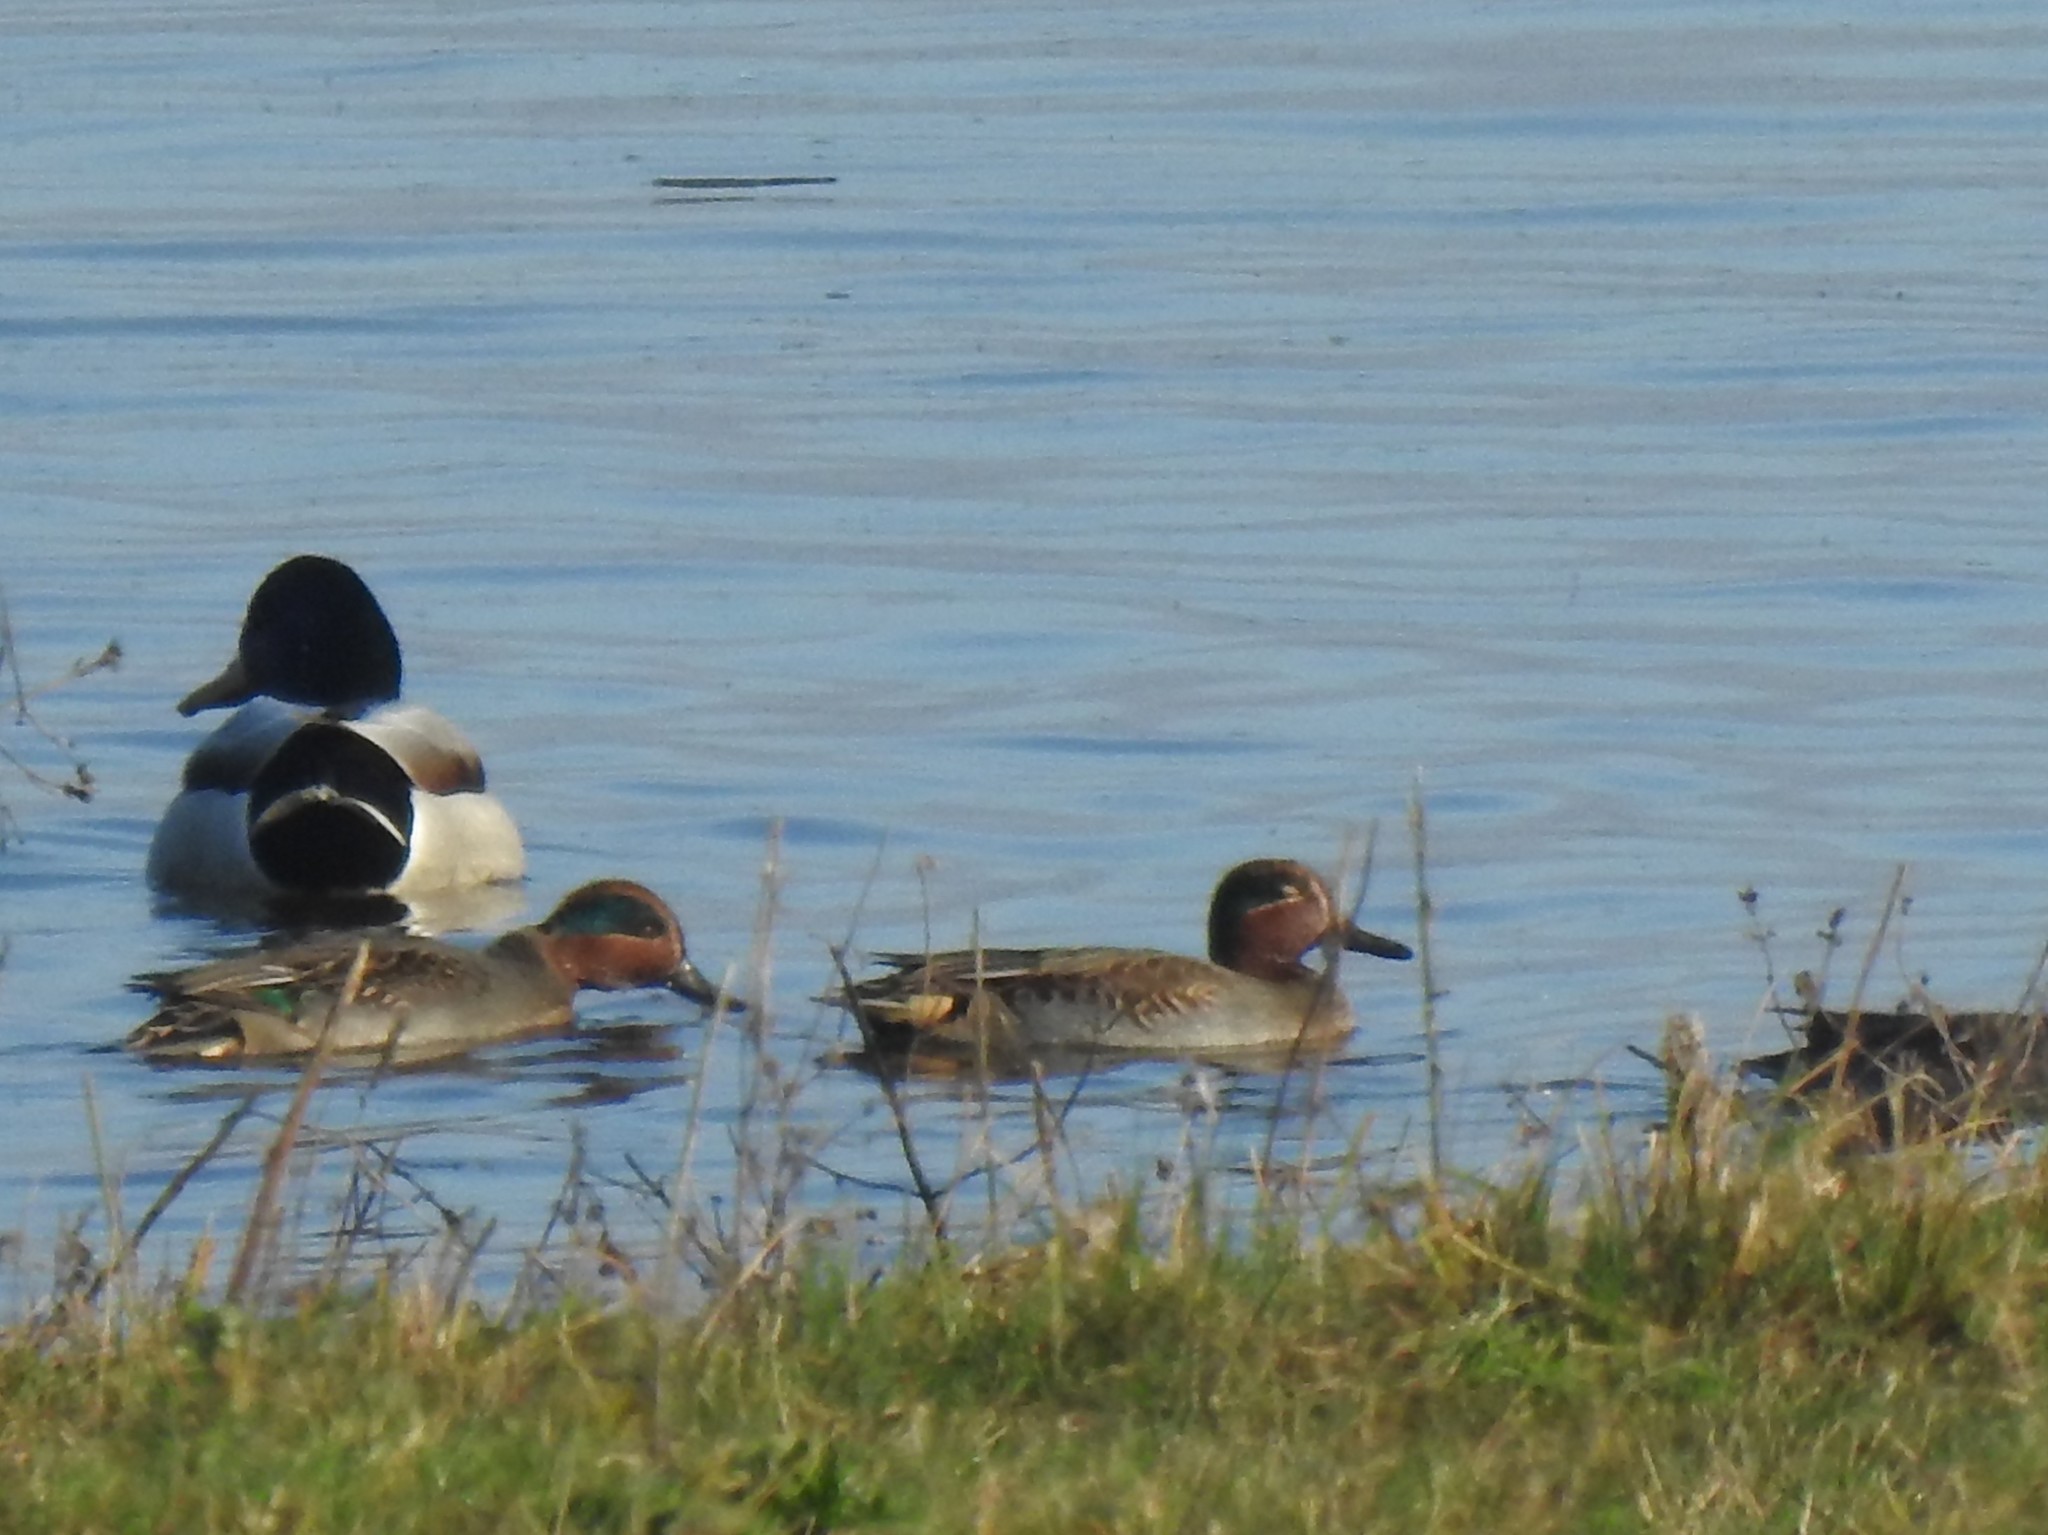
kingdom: Animalia
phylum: Chordata
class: Aves
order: Anseriformes
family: Anatidae
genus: Anas
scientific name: Anas crecca
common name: Eurasian teal
